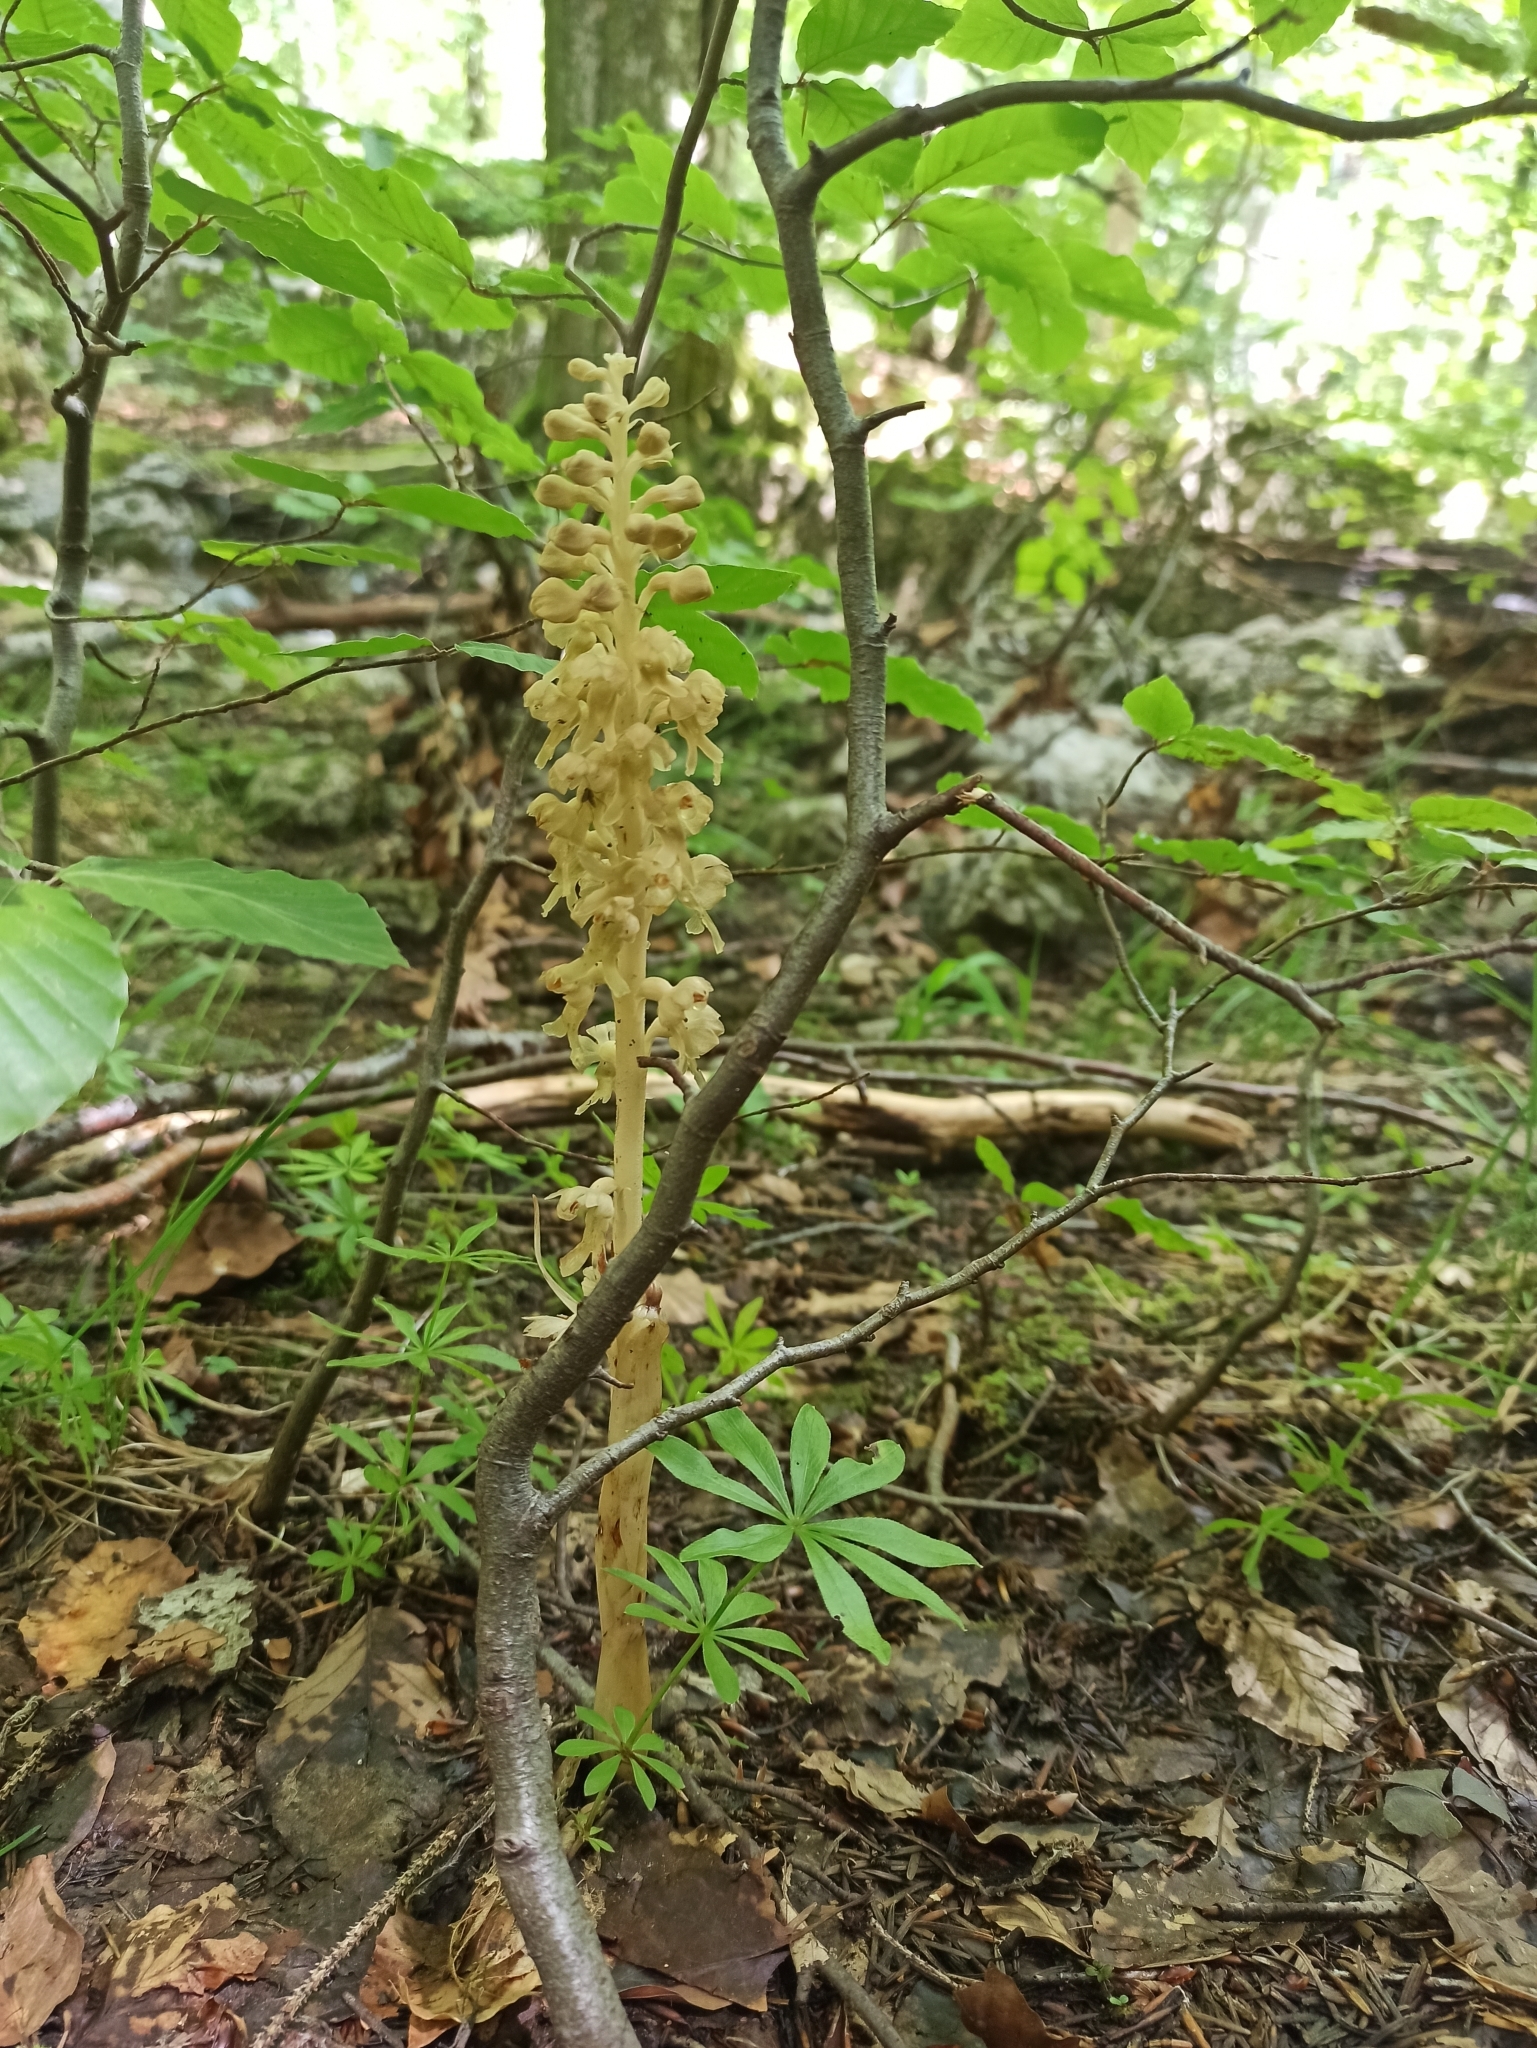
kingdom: Plantae
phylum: Tracheophyta
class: Liliopsida
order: Asparagales
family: Orchidaceae
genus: Neottia
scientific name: Neottia nidus-avis
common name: Bird's-nest orchid
